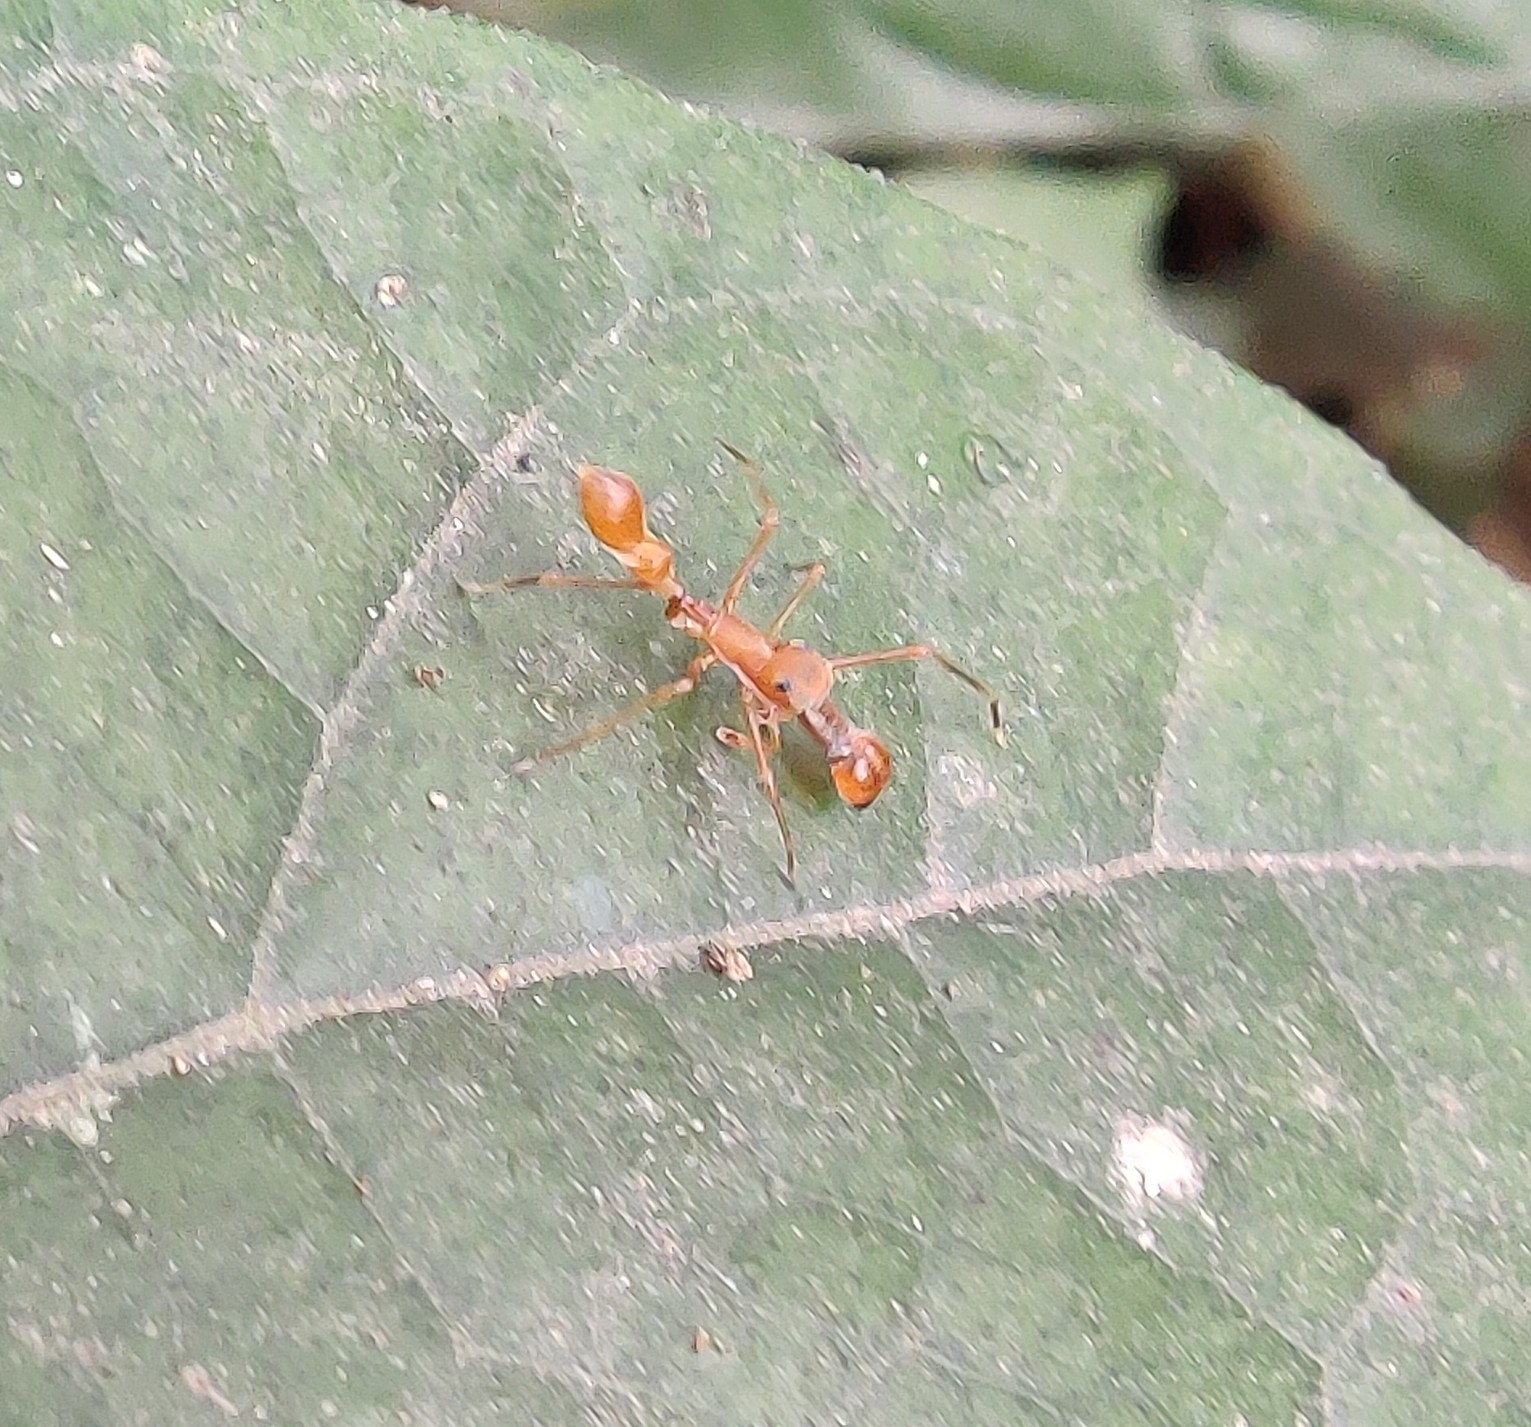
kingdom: Animalia
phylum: Arthropoda
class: Arachnida
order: Araneae
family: Salticidae
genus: Myrmaplata
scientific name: Myrmaplata plataleoides
